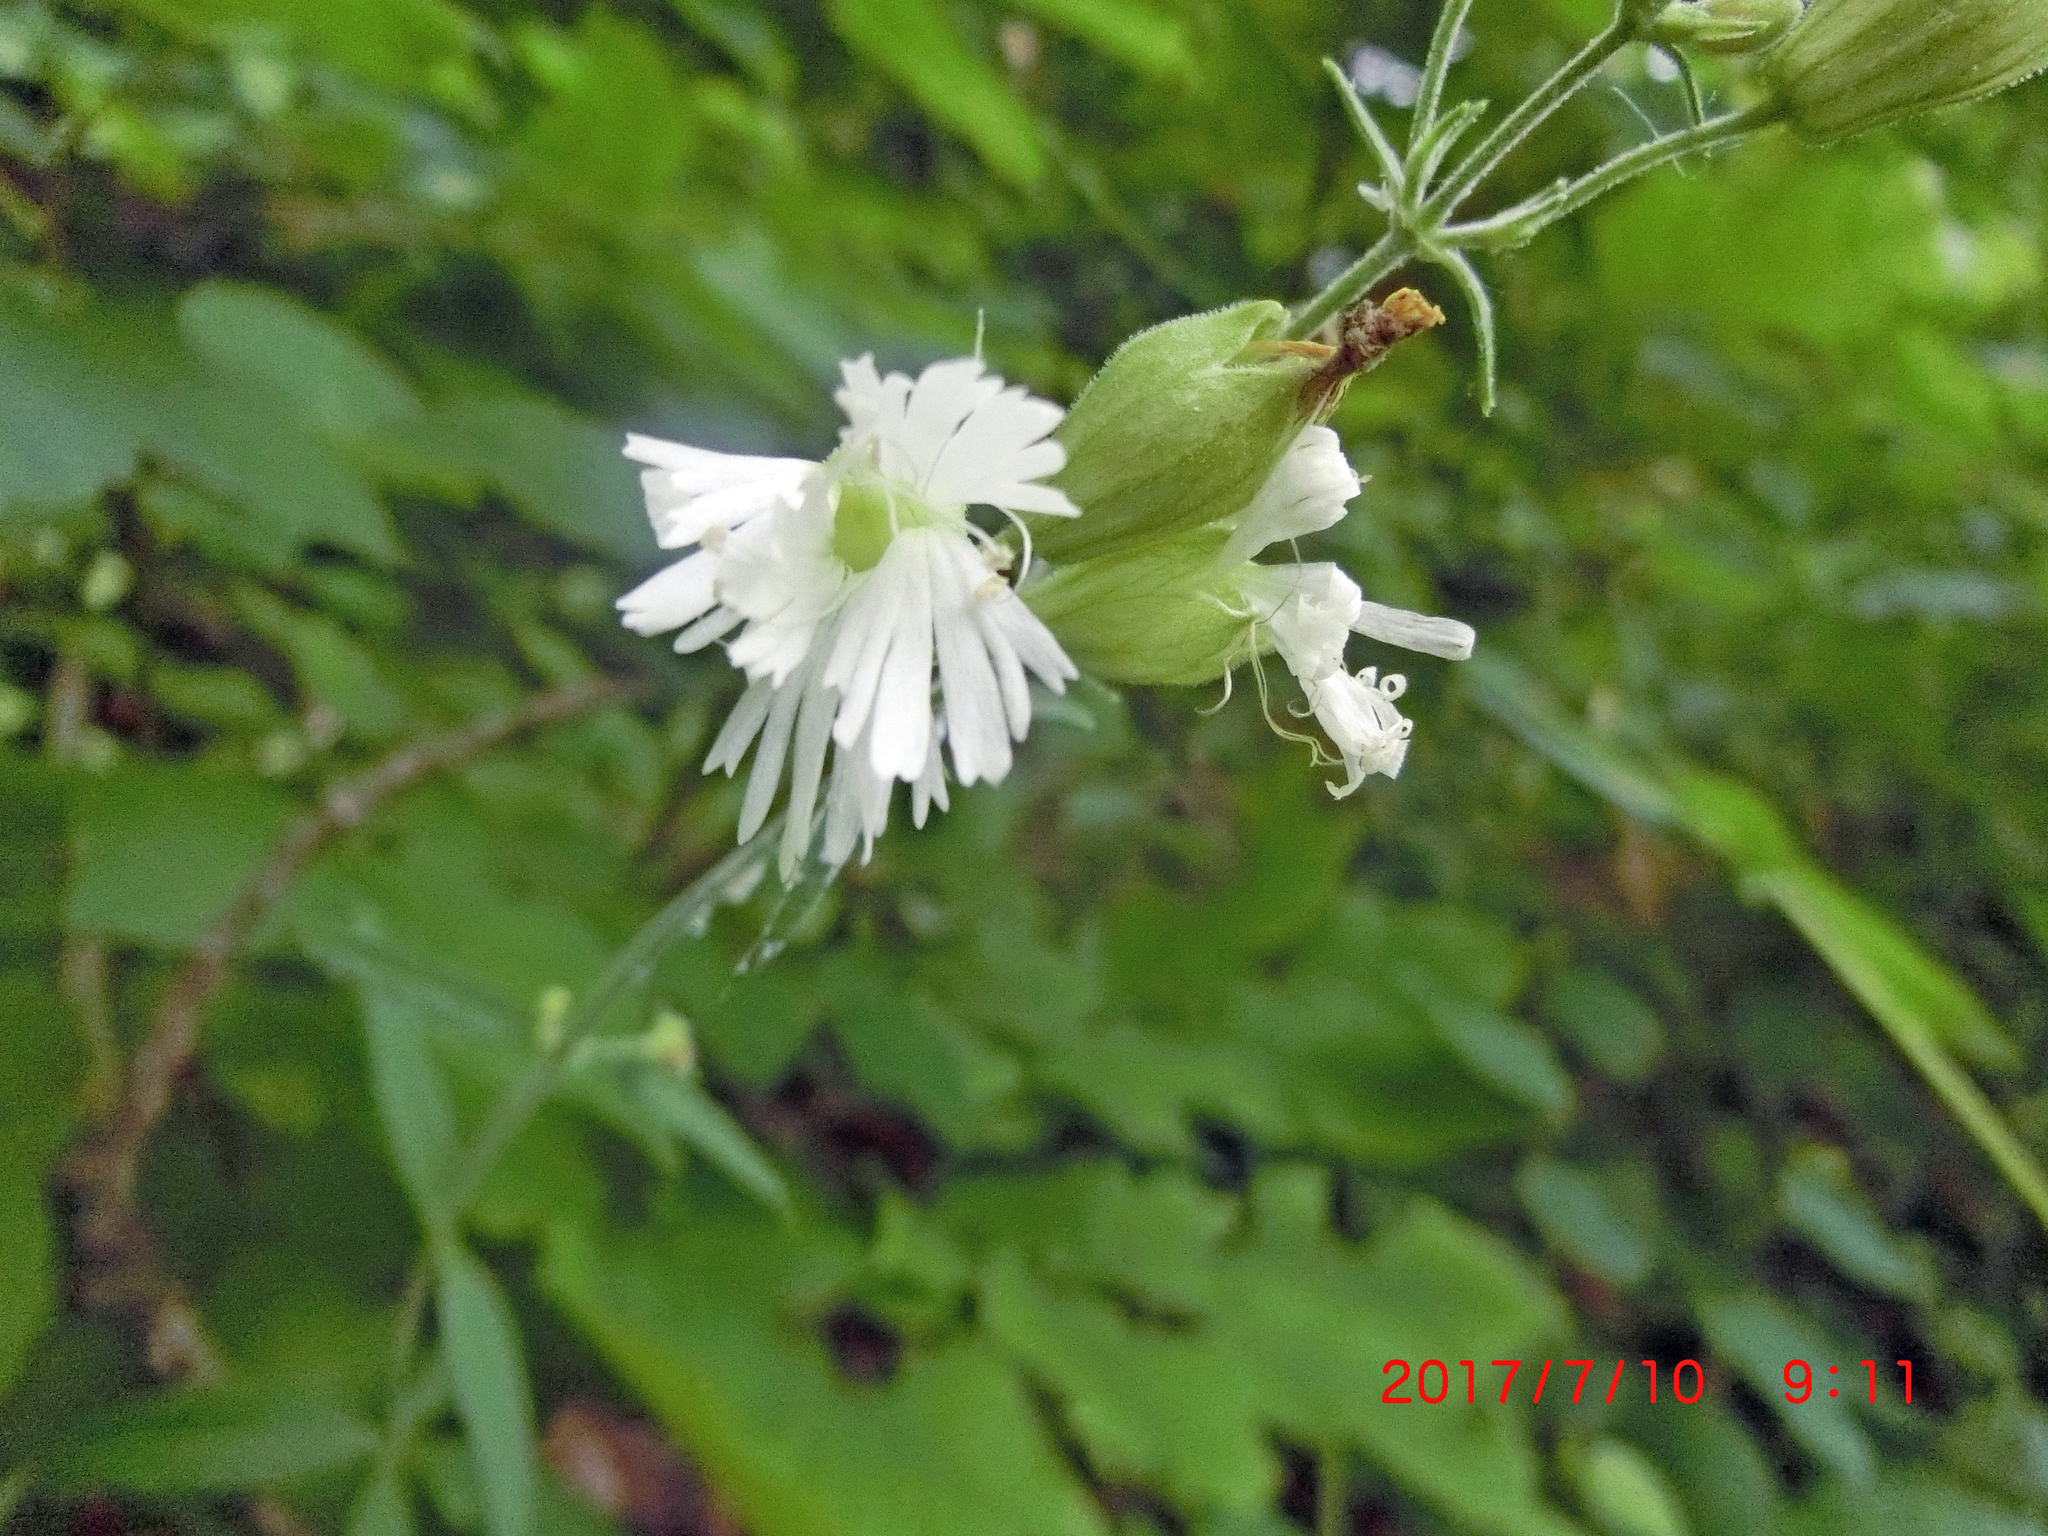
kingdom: Plantae
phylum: Tracheophyta
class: Magnoliopsida
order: Caryophyllales
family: Caryophyllaceae
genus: Silene
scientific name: Silene stellata
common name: Starry campion
